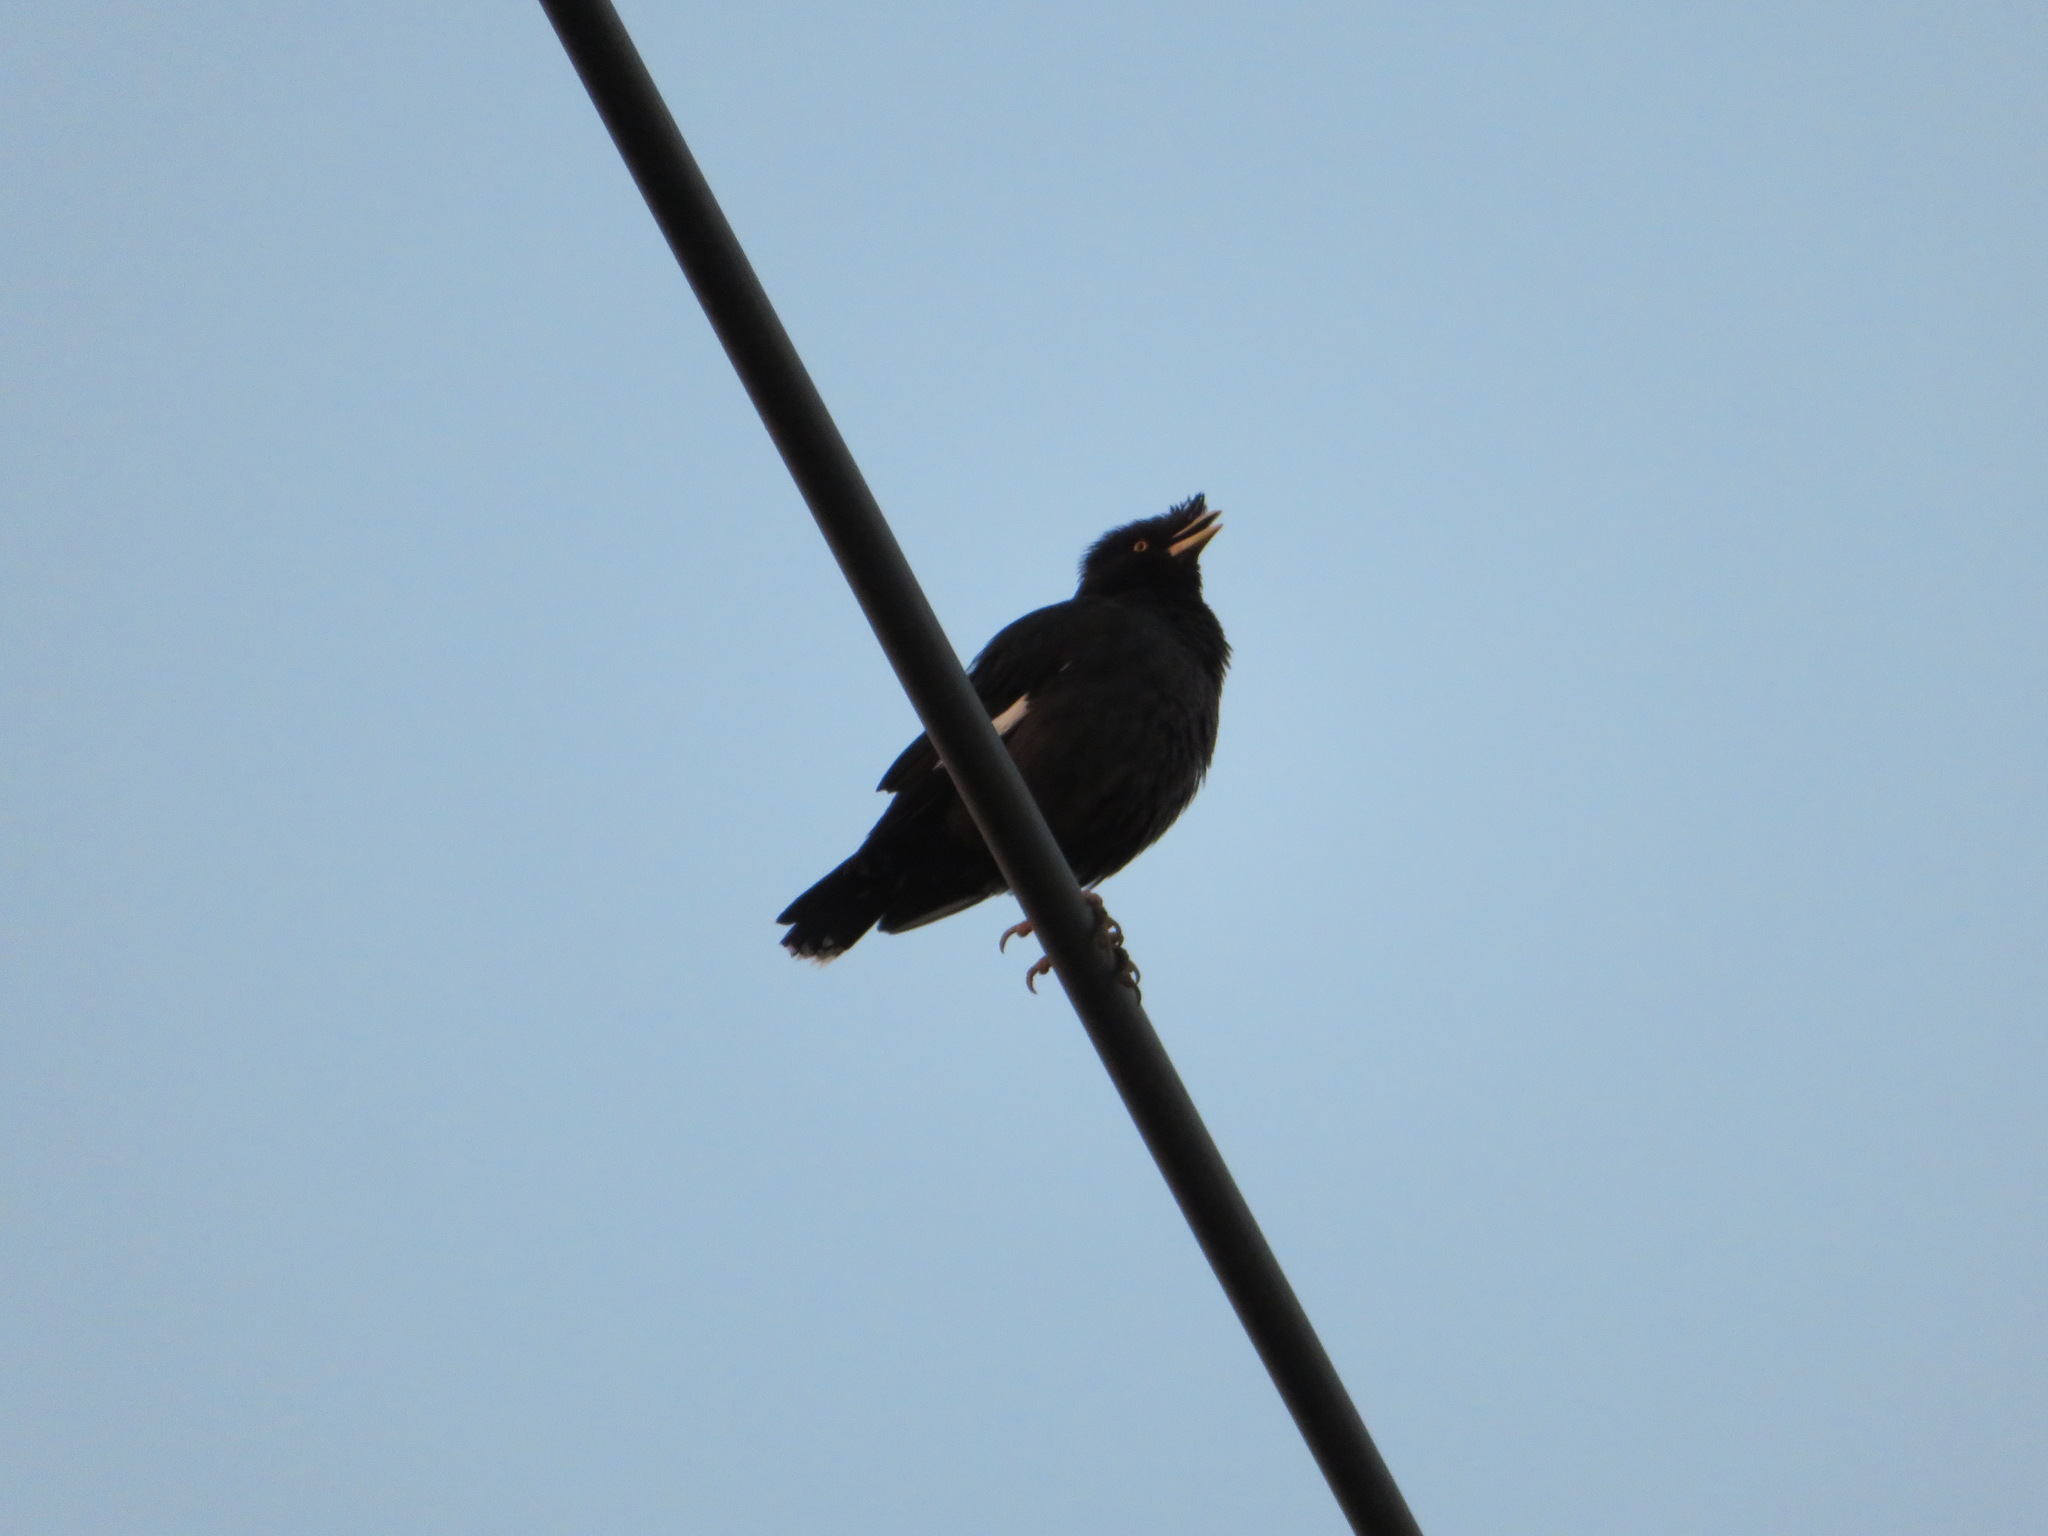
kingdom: Animalia
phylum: Chordata
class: Aves
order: Passeriformes
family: Sturnidae
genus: Acridotheres
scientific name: Acridotheres cristatellus
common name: Crested myna
